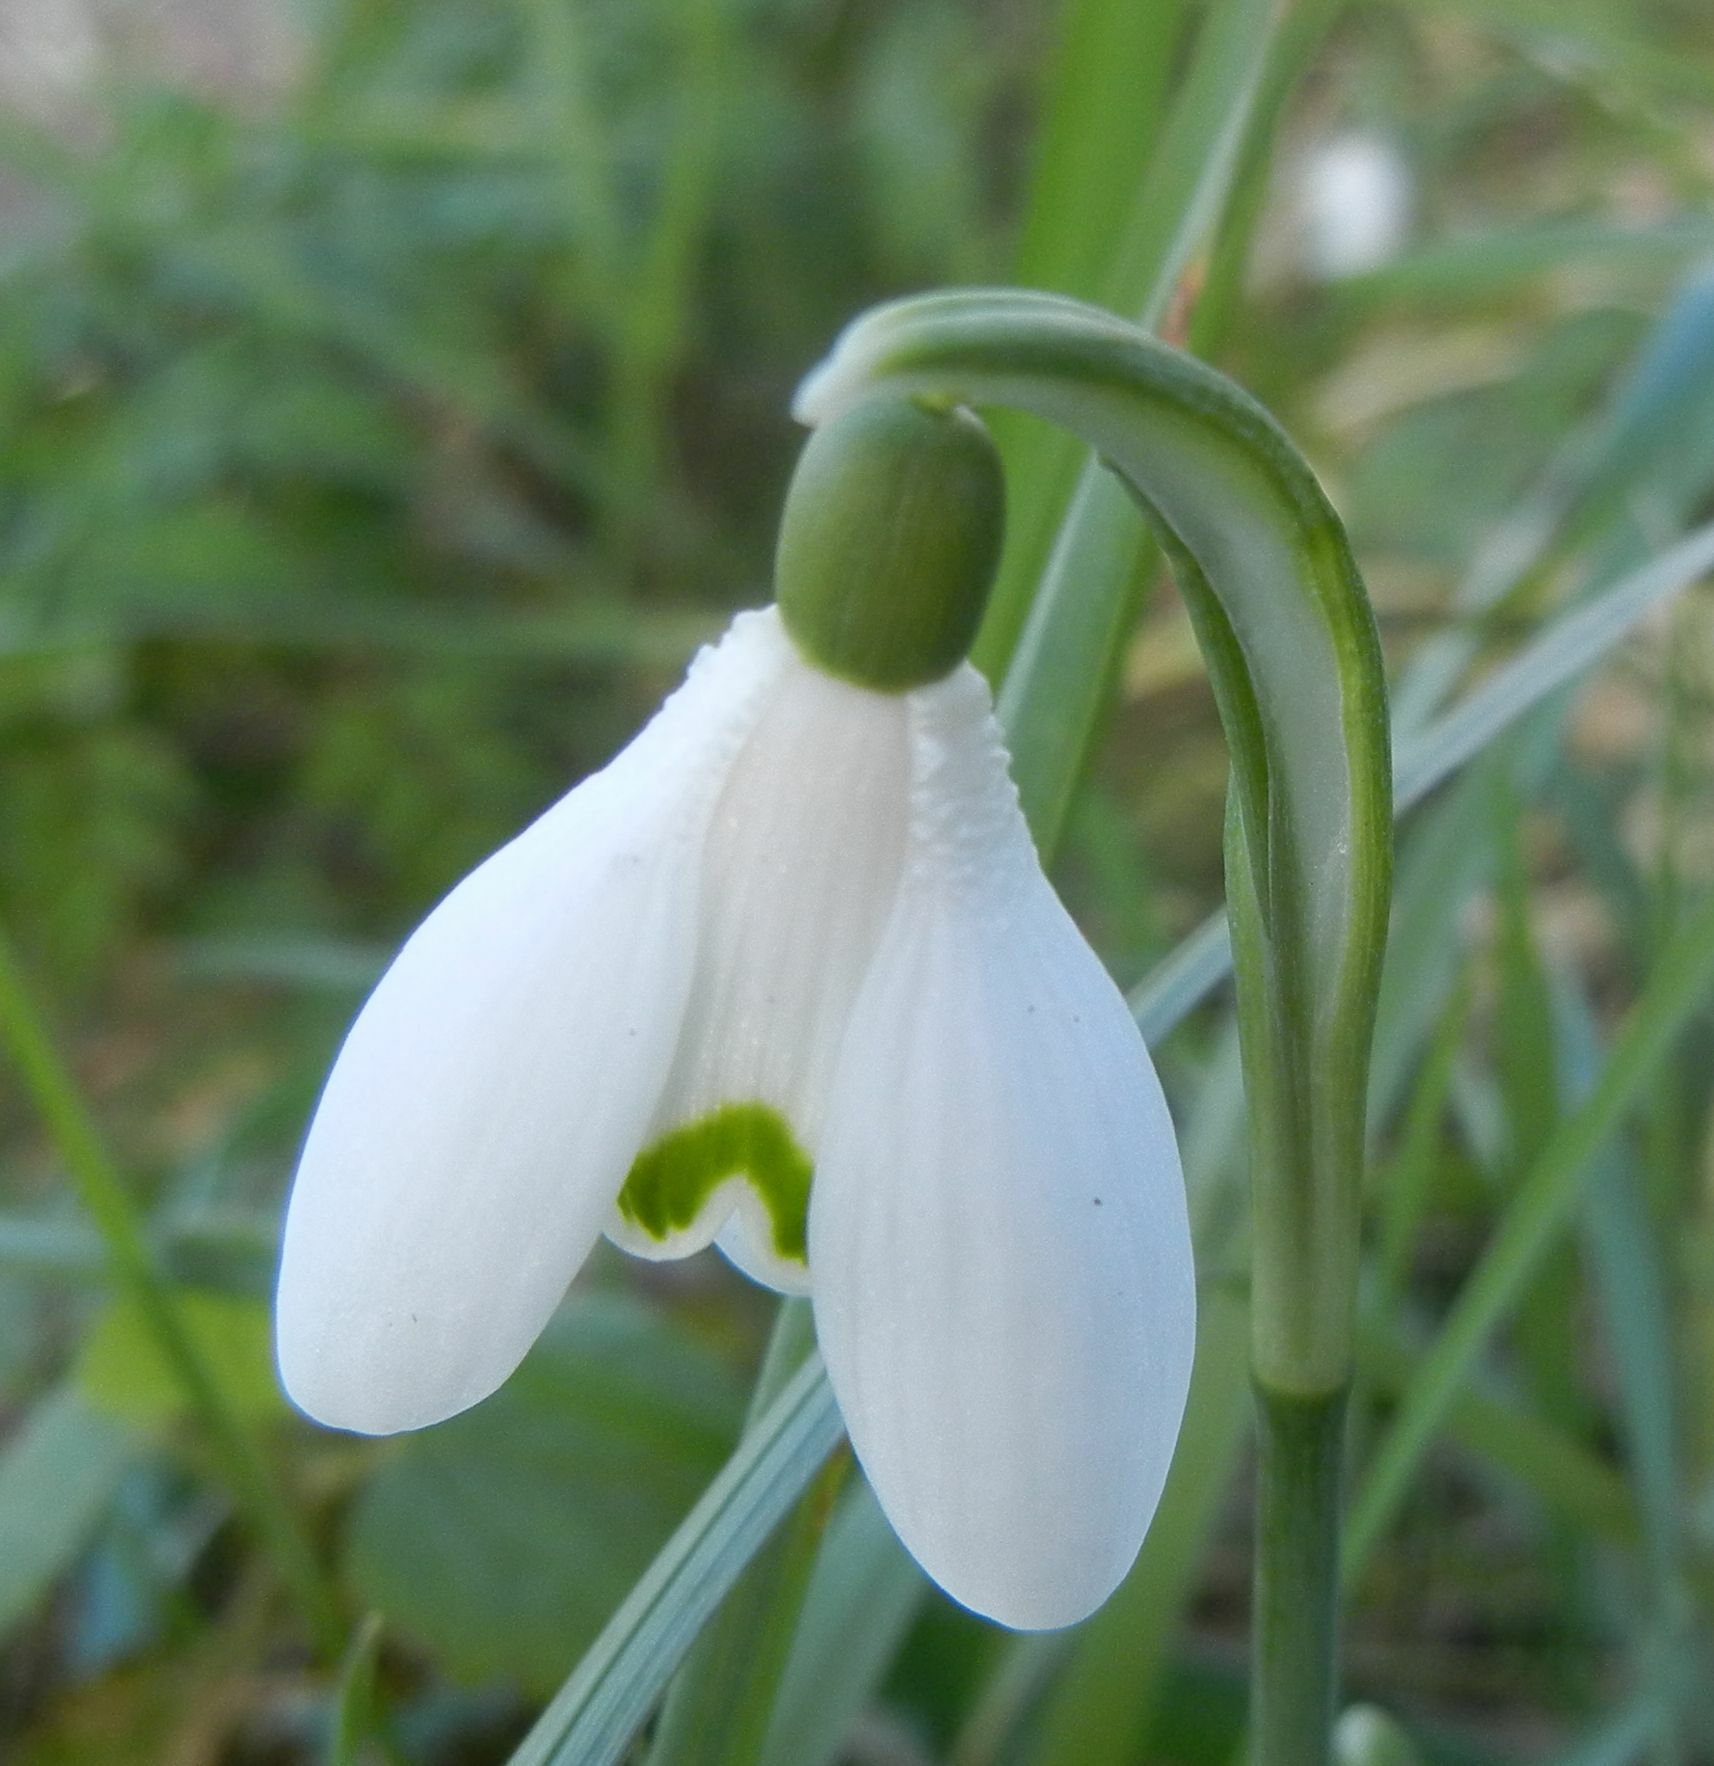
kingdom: Plantae
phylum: Tracheophyta
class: Liliopsida
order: Asparagales
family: Amaryllidaceae
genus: Galanthus
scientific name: Galanthus nivalis
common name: Snowdrop
